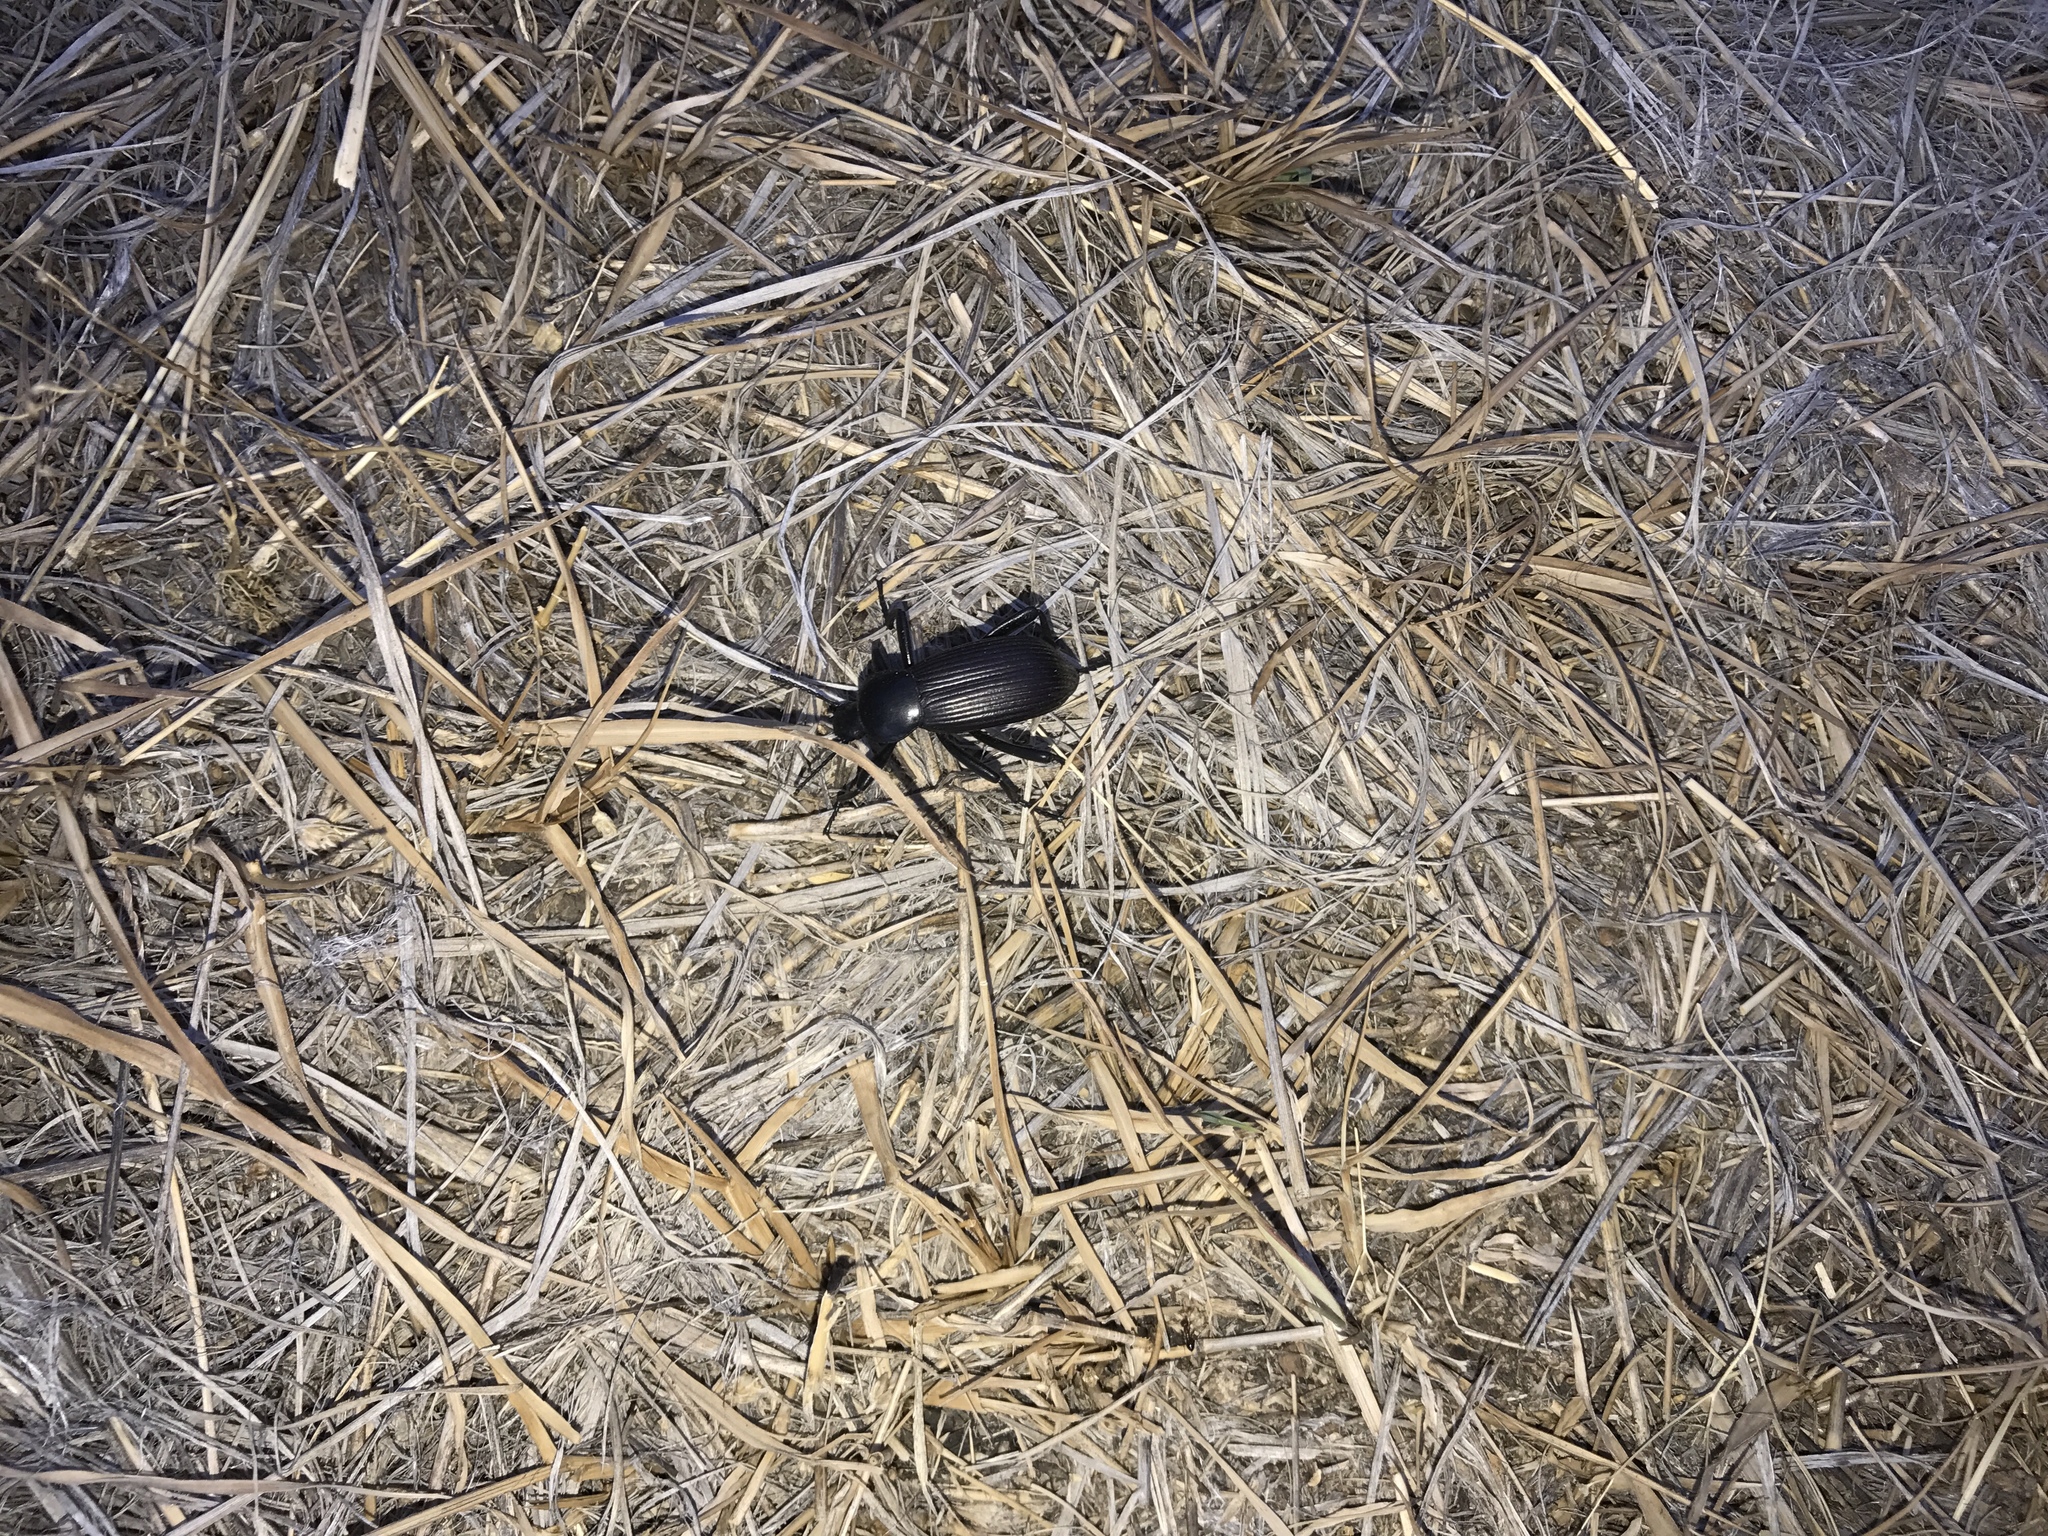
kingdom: Animalia
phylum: Arthropoda
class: Insecta
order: Coleoptera
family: Tenebrionidae
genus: Eleodes
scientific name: Eleodes obscura
